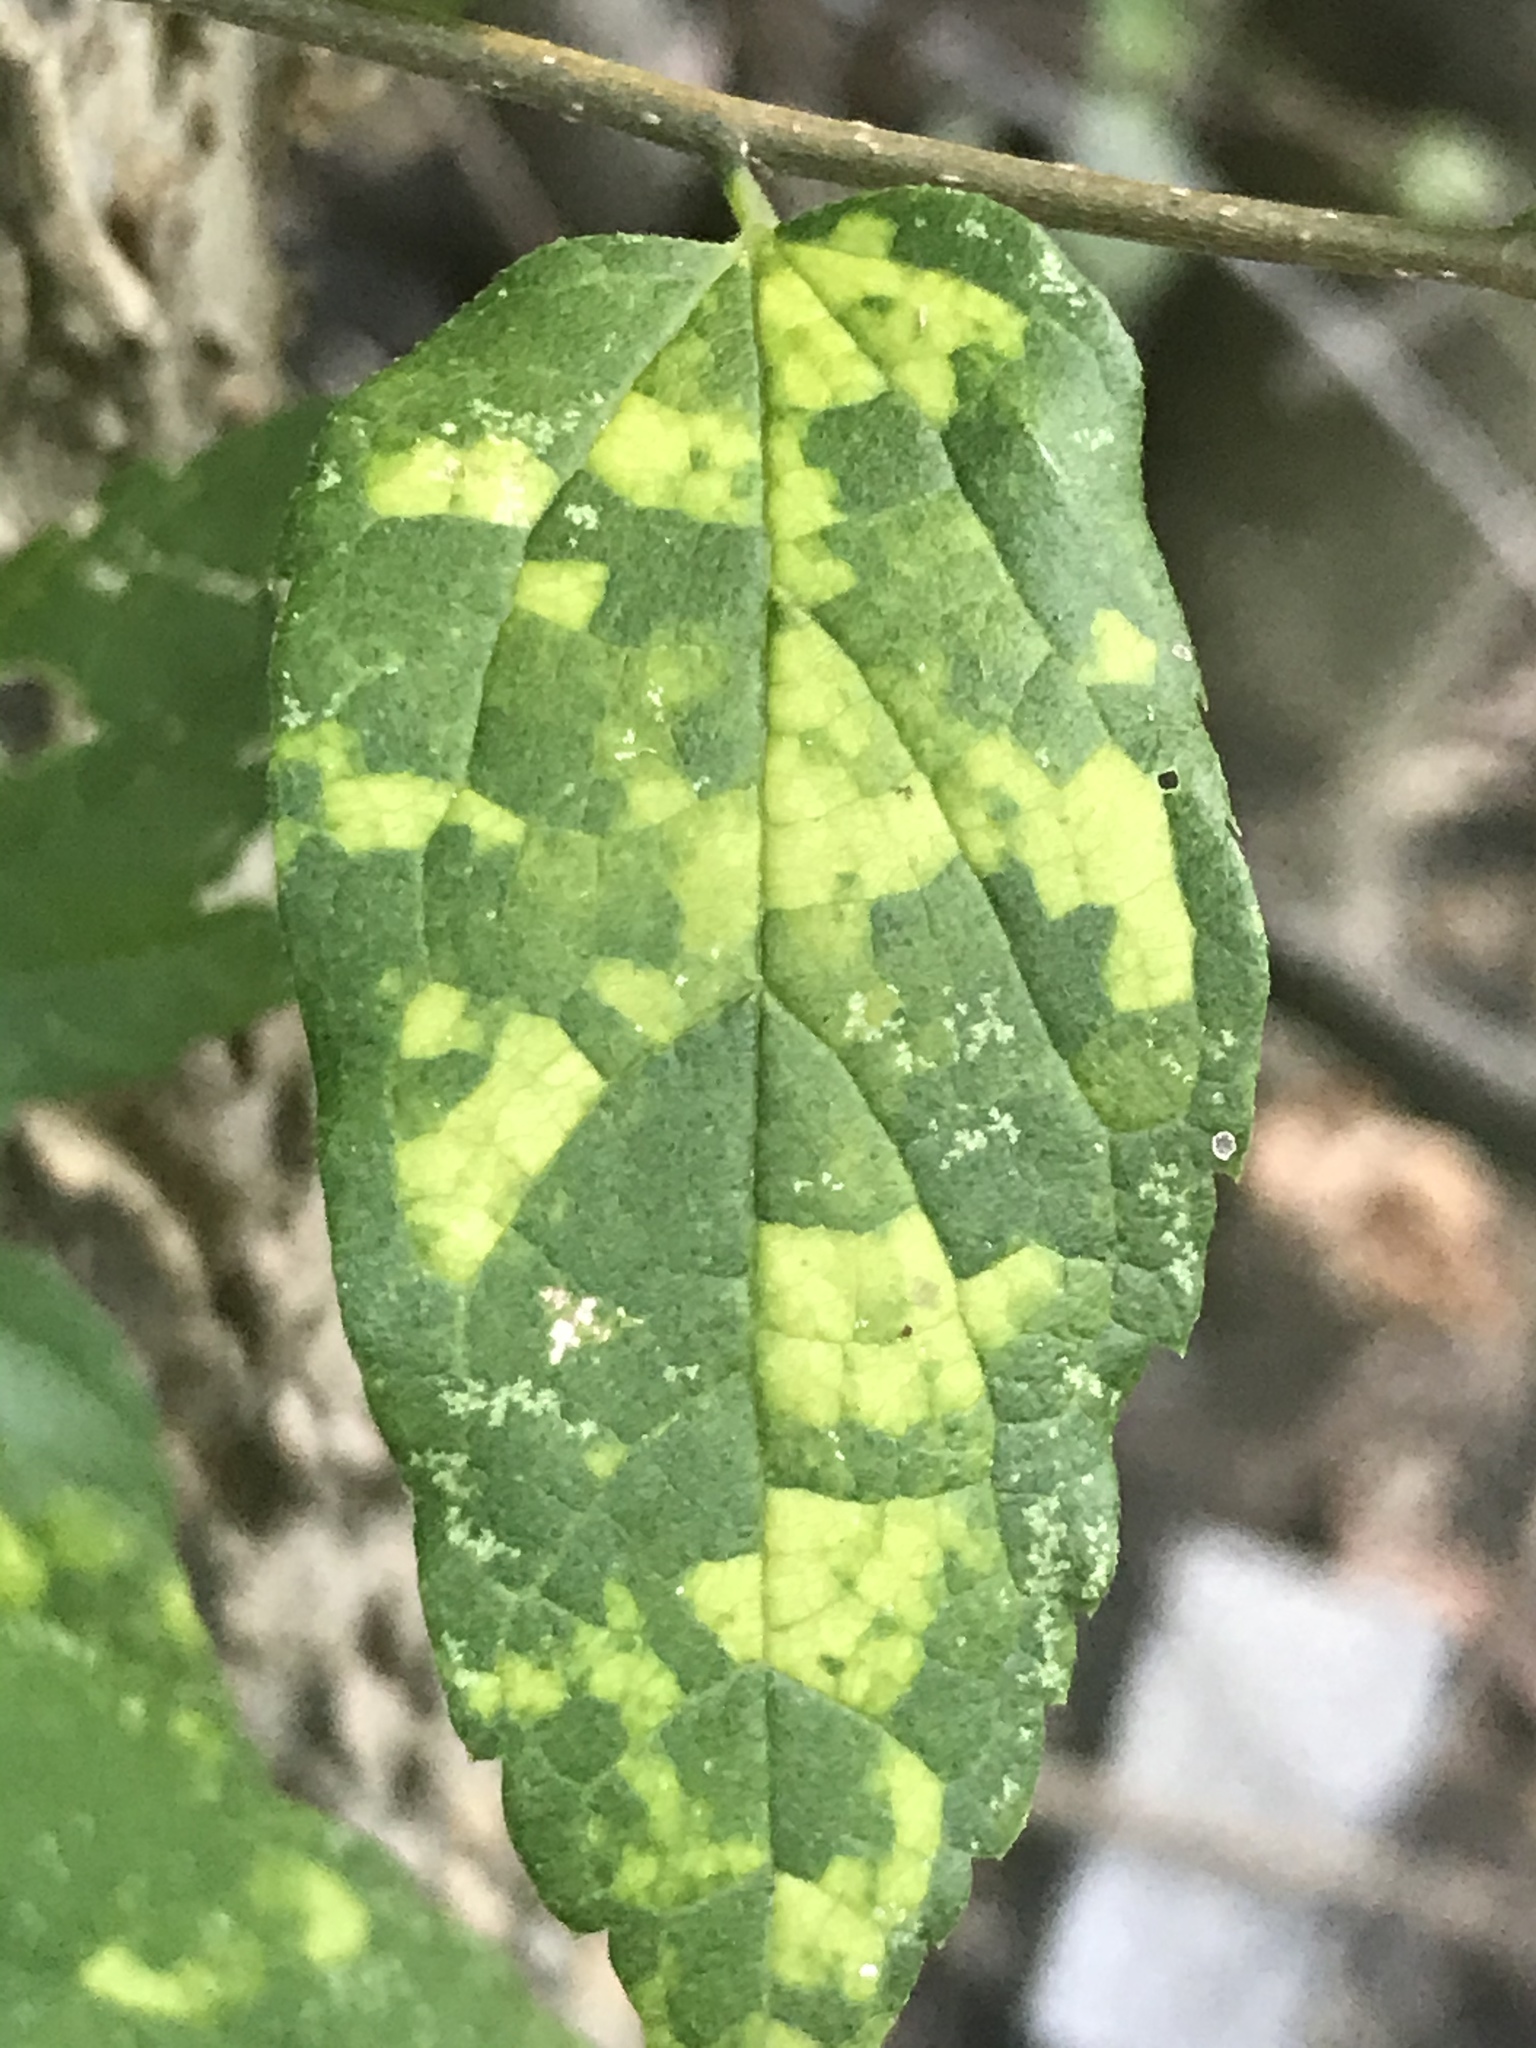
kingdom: Viruses
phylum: Kitrinoviricota
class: Alsuviricetes
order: Martellivirales
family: Closteroviridae
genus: Ampelovirus
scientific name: Ampelovirus
